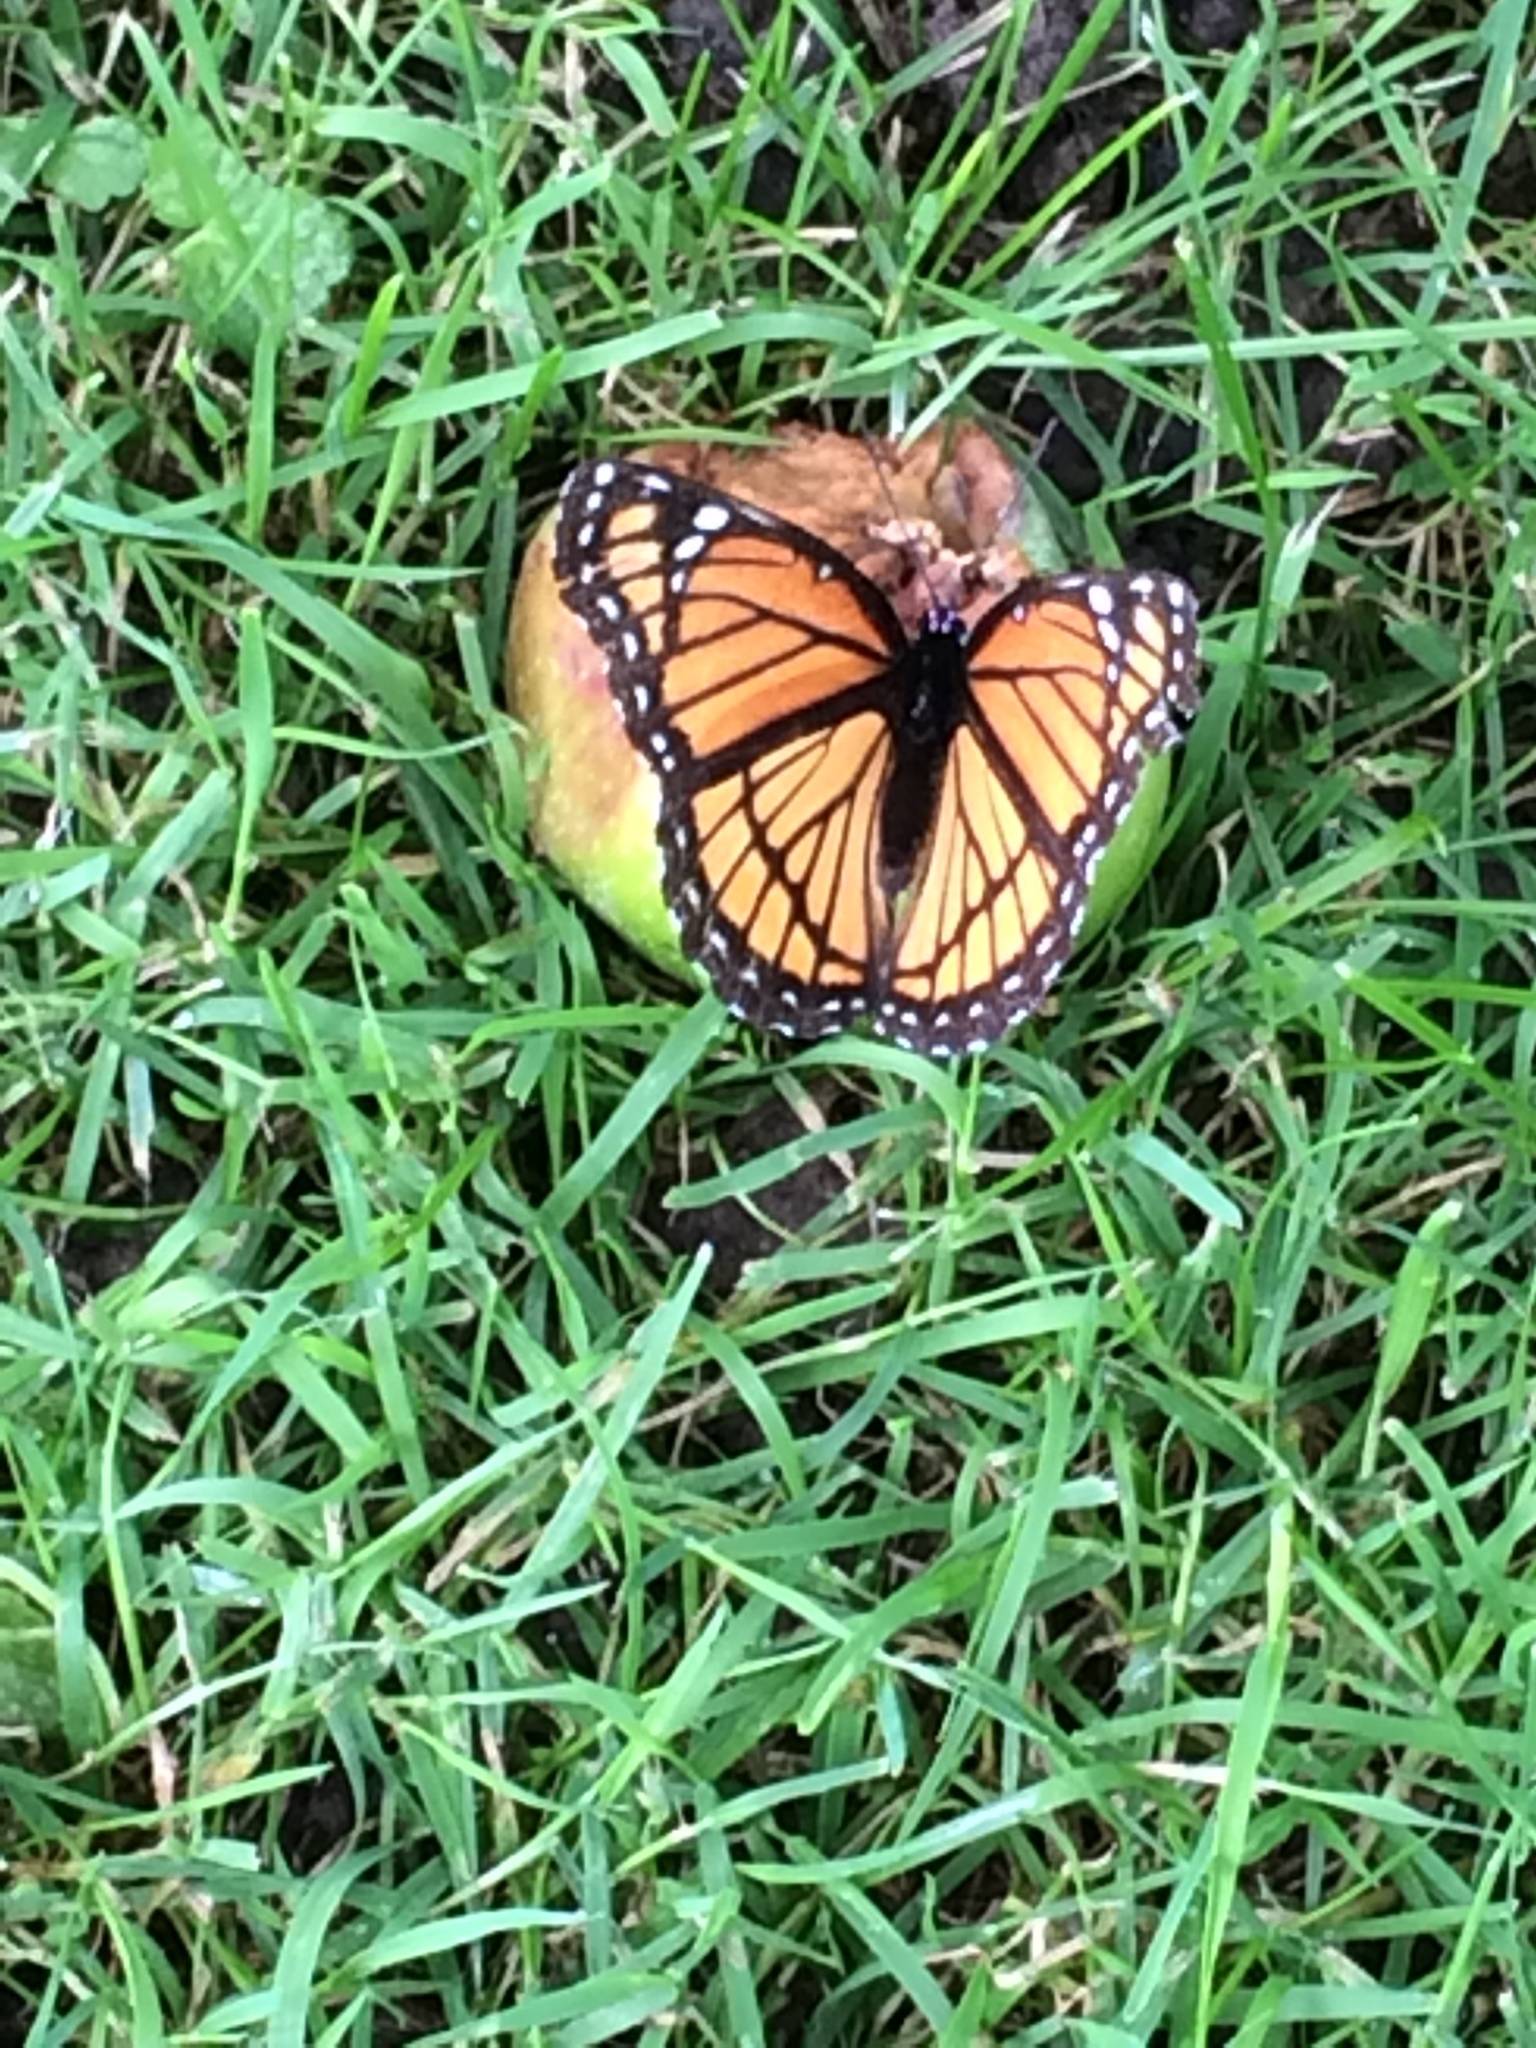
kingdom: Animalia
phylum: Arthropoda
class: Insecta
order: Lepidoptera
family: Nymphalidae
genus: Limenitis
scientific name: Limenitis archippus
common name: Viceroy
